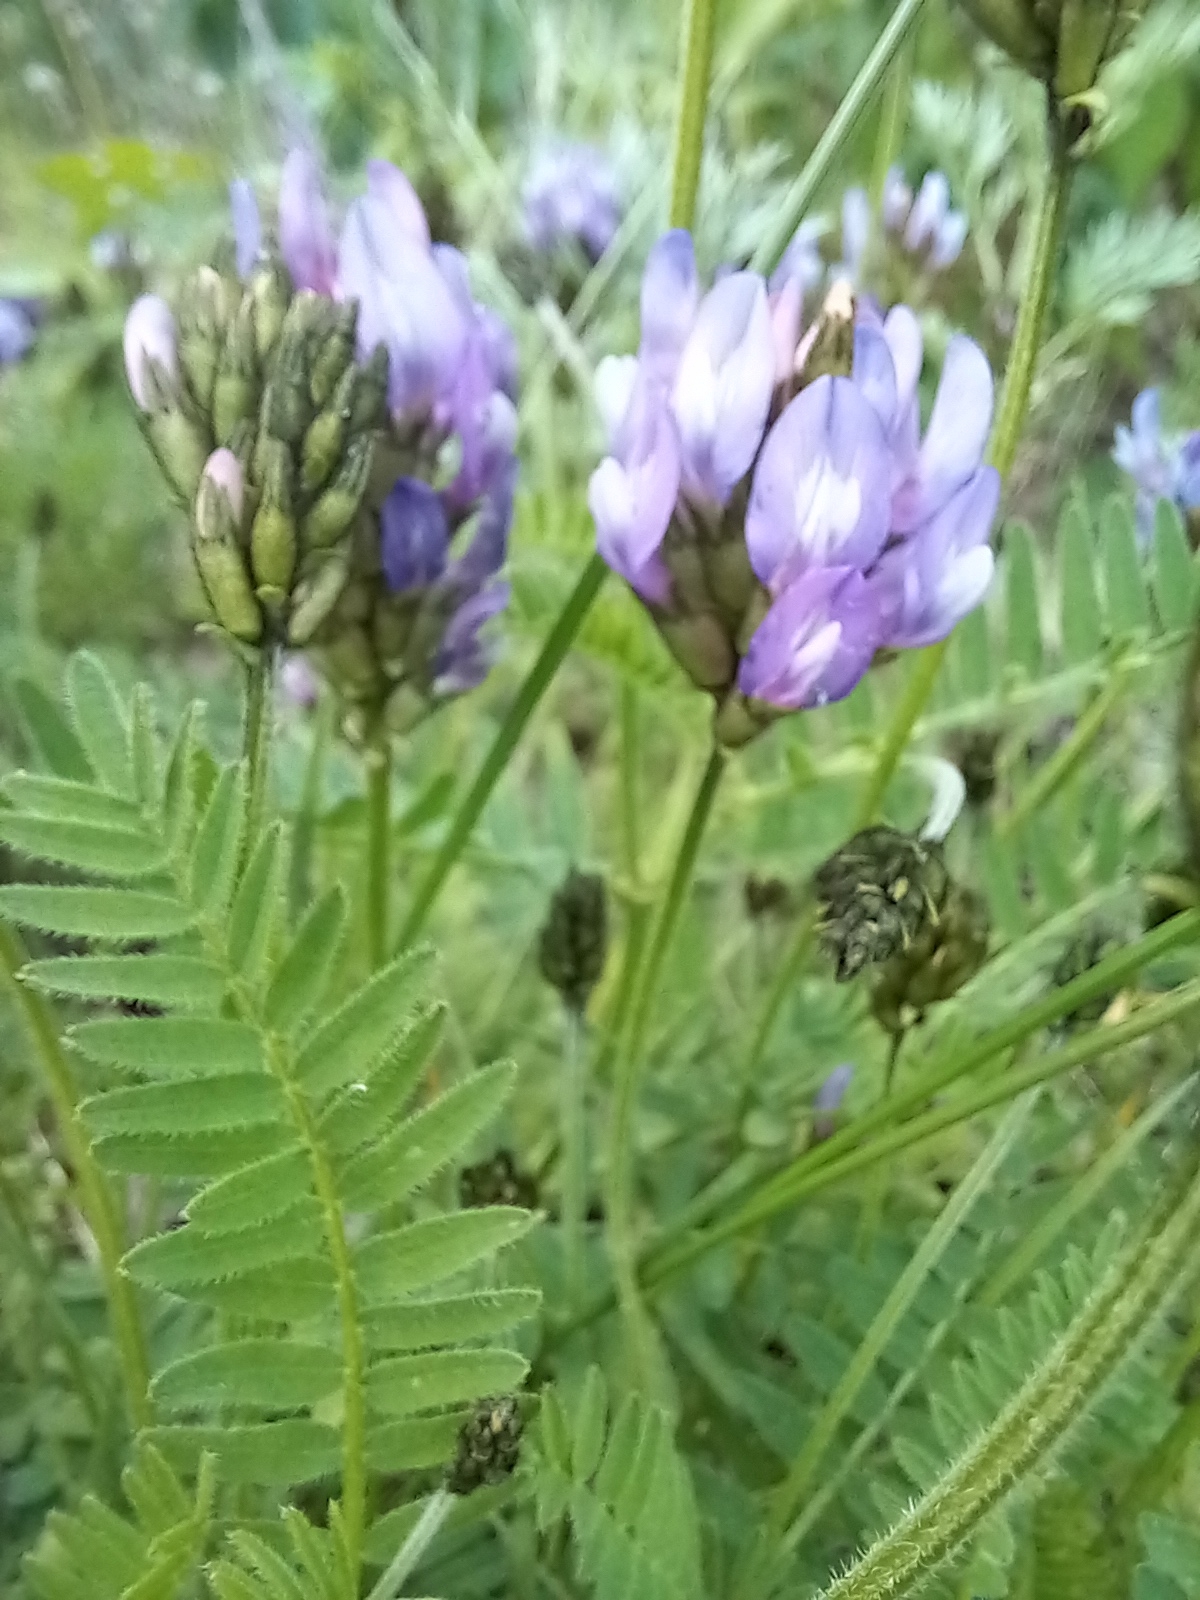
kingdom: Plantae
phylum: Tracheophyta
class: Magnoliopsida
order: Fabales
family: Fabaceae
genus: Astragalus
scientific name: Astragalus danicus
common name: Purple milk-vetch
